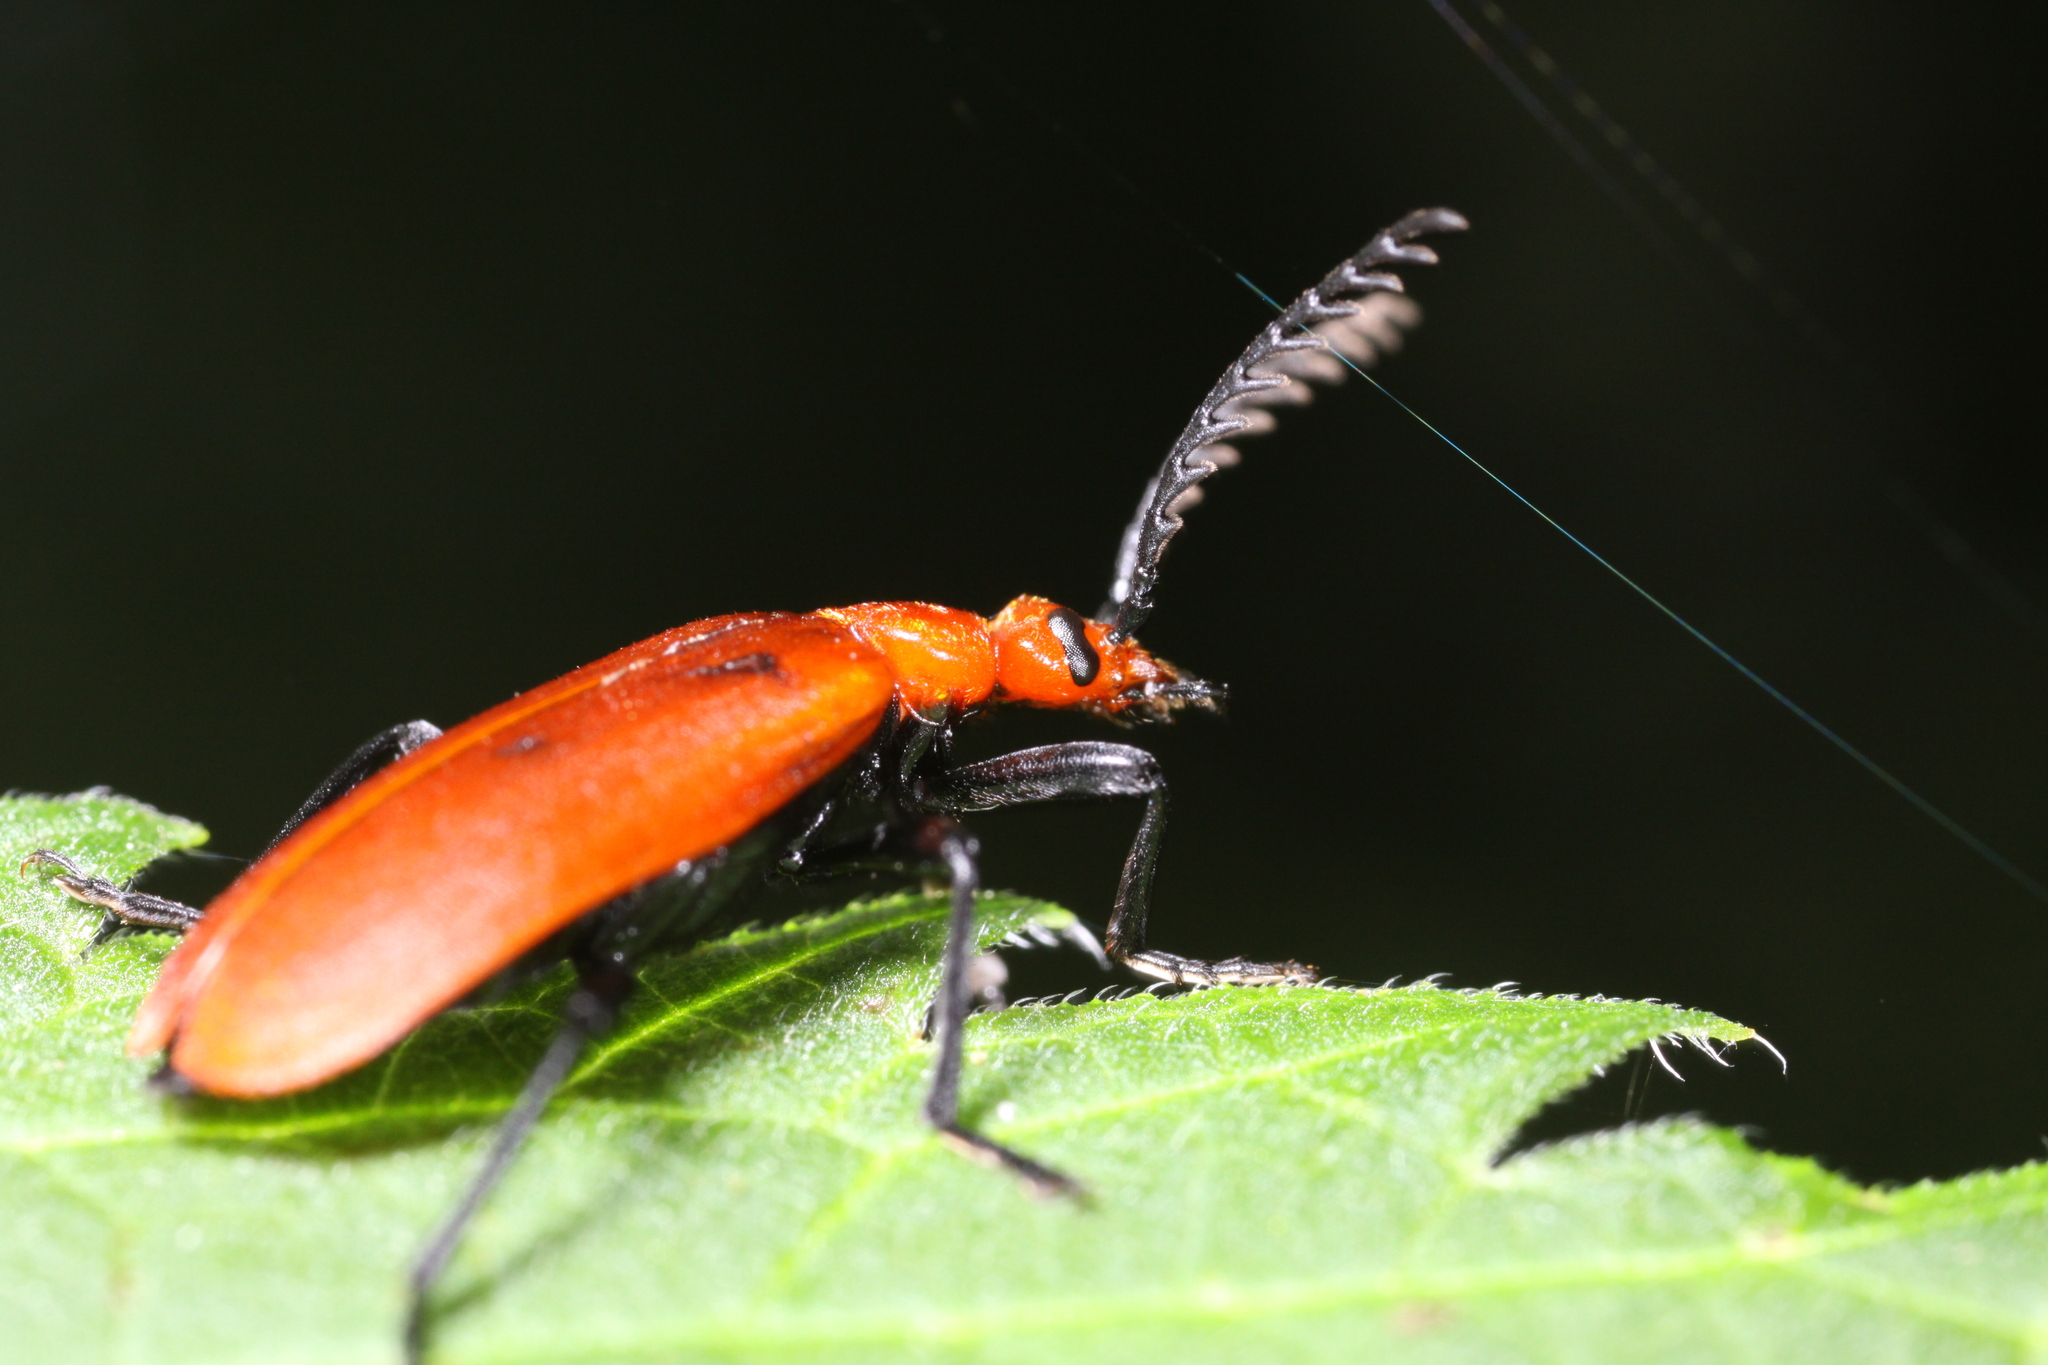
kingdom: Animalia
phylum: Arthropoda
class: Insecta
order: Coleoptera
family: Pyrochroidae
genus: Pyrochroa
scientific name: Pyrochroa serraticornis
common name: Red-headed cardinal beetle
